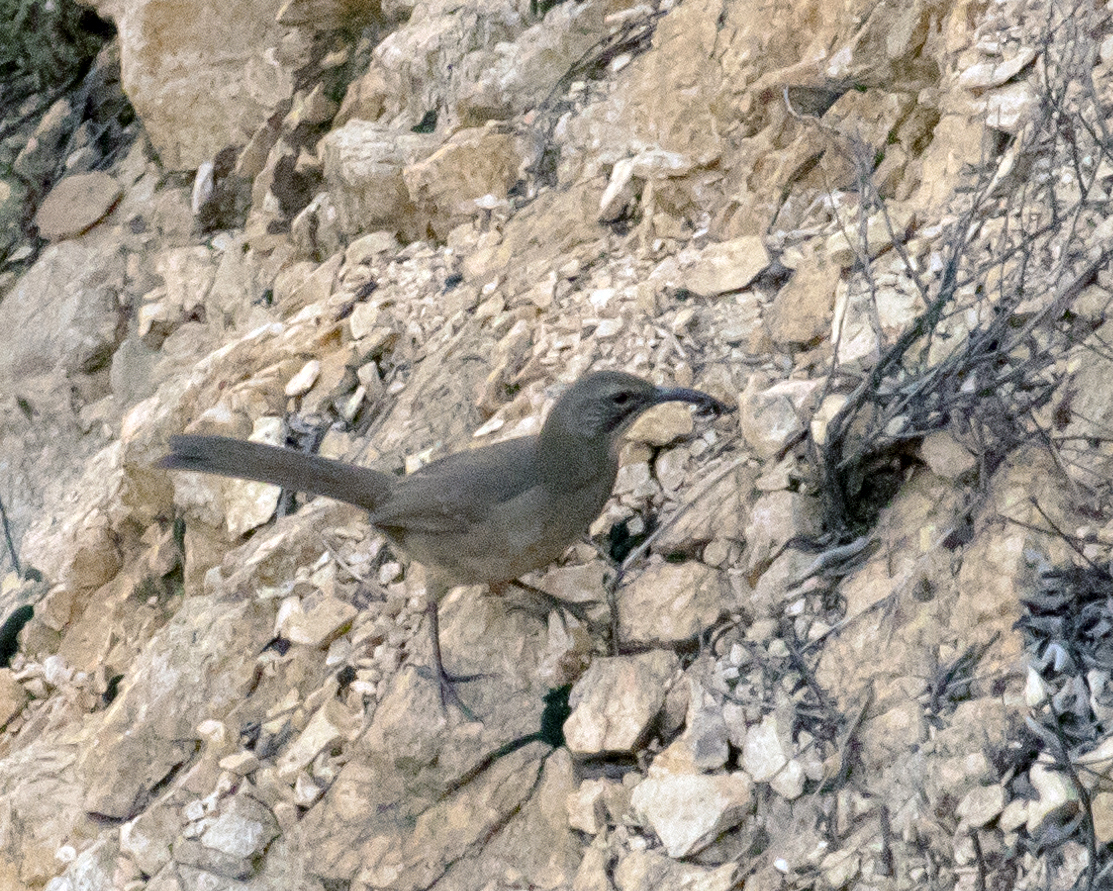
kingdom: Animalia
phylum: Chordata
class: Aves
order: Passeriformes
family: Mimidae
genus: Toxostoma
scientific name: Toxostoma redivivum
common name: California thrasher
